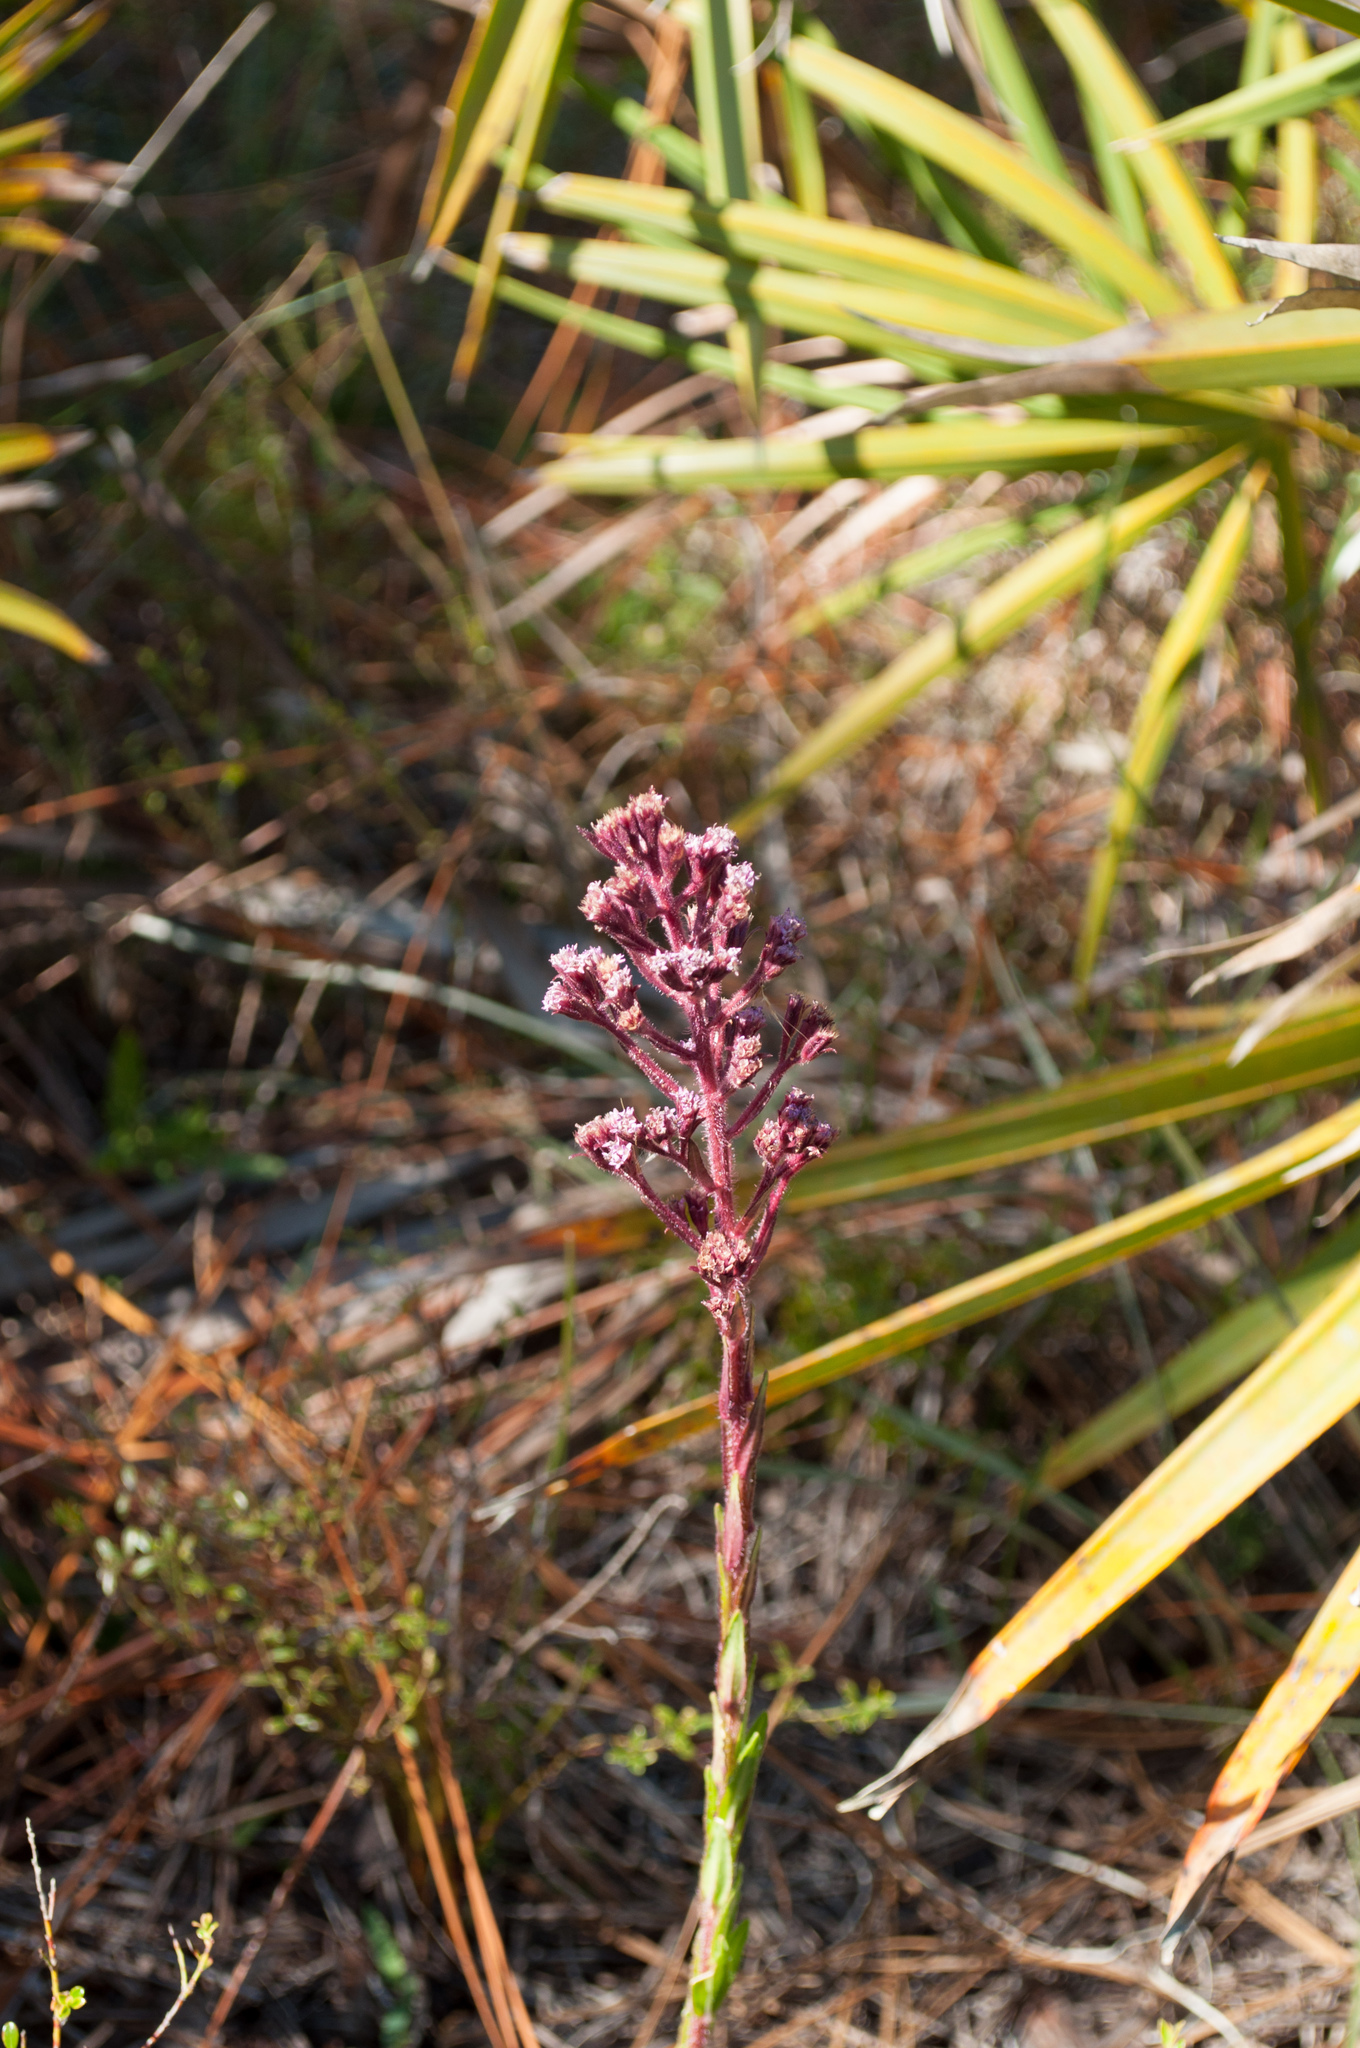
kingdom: Plantae
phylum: Tracheophyta
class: Magnoliopsida
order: Asterales
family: Asteraceae
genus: Carphephorus
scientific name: Carphephorus paniculatus
